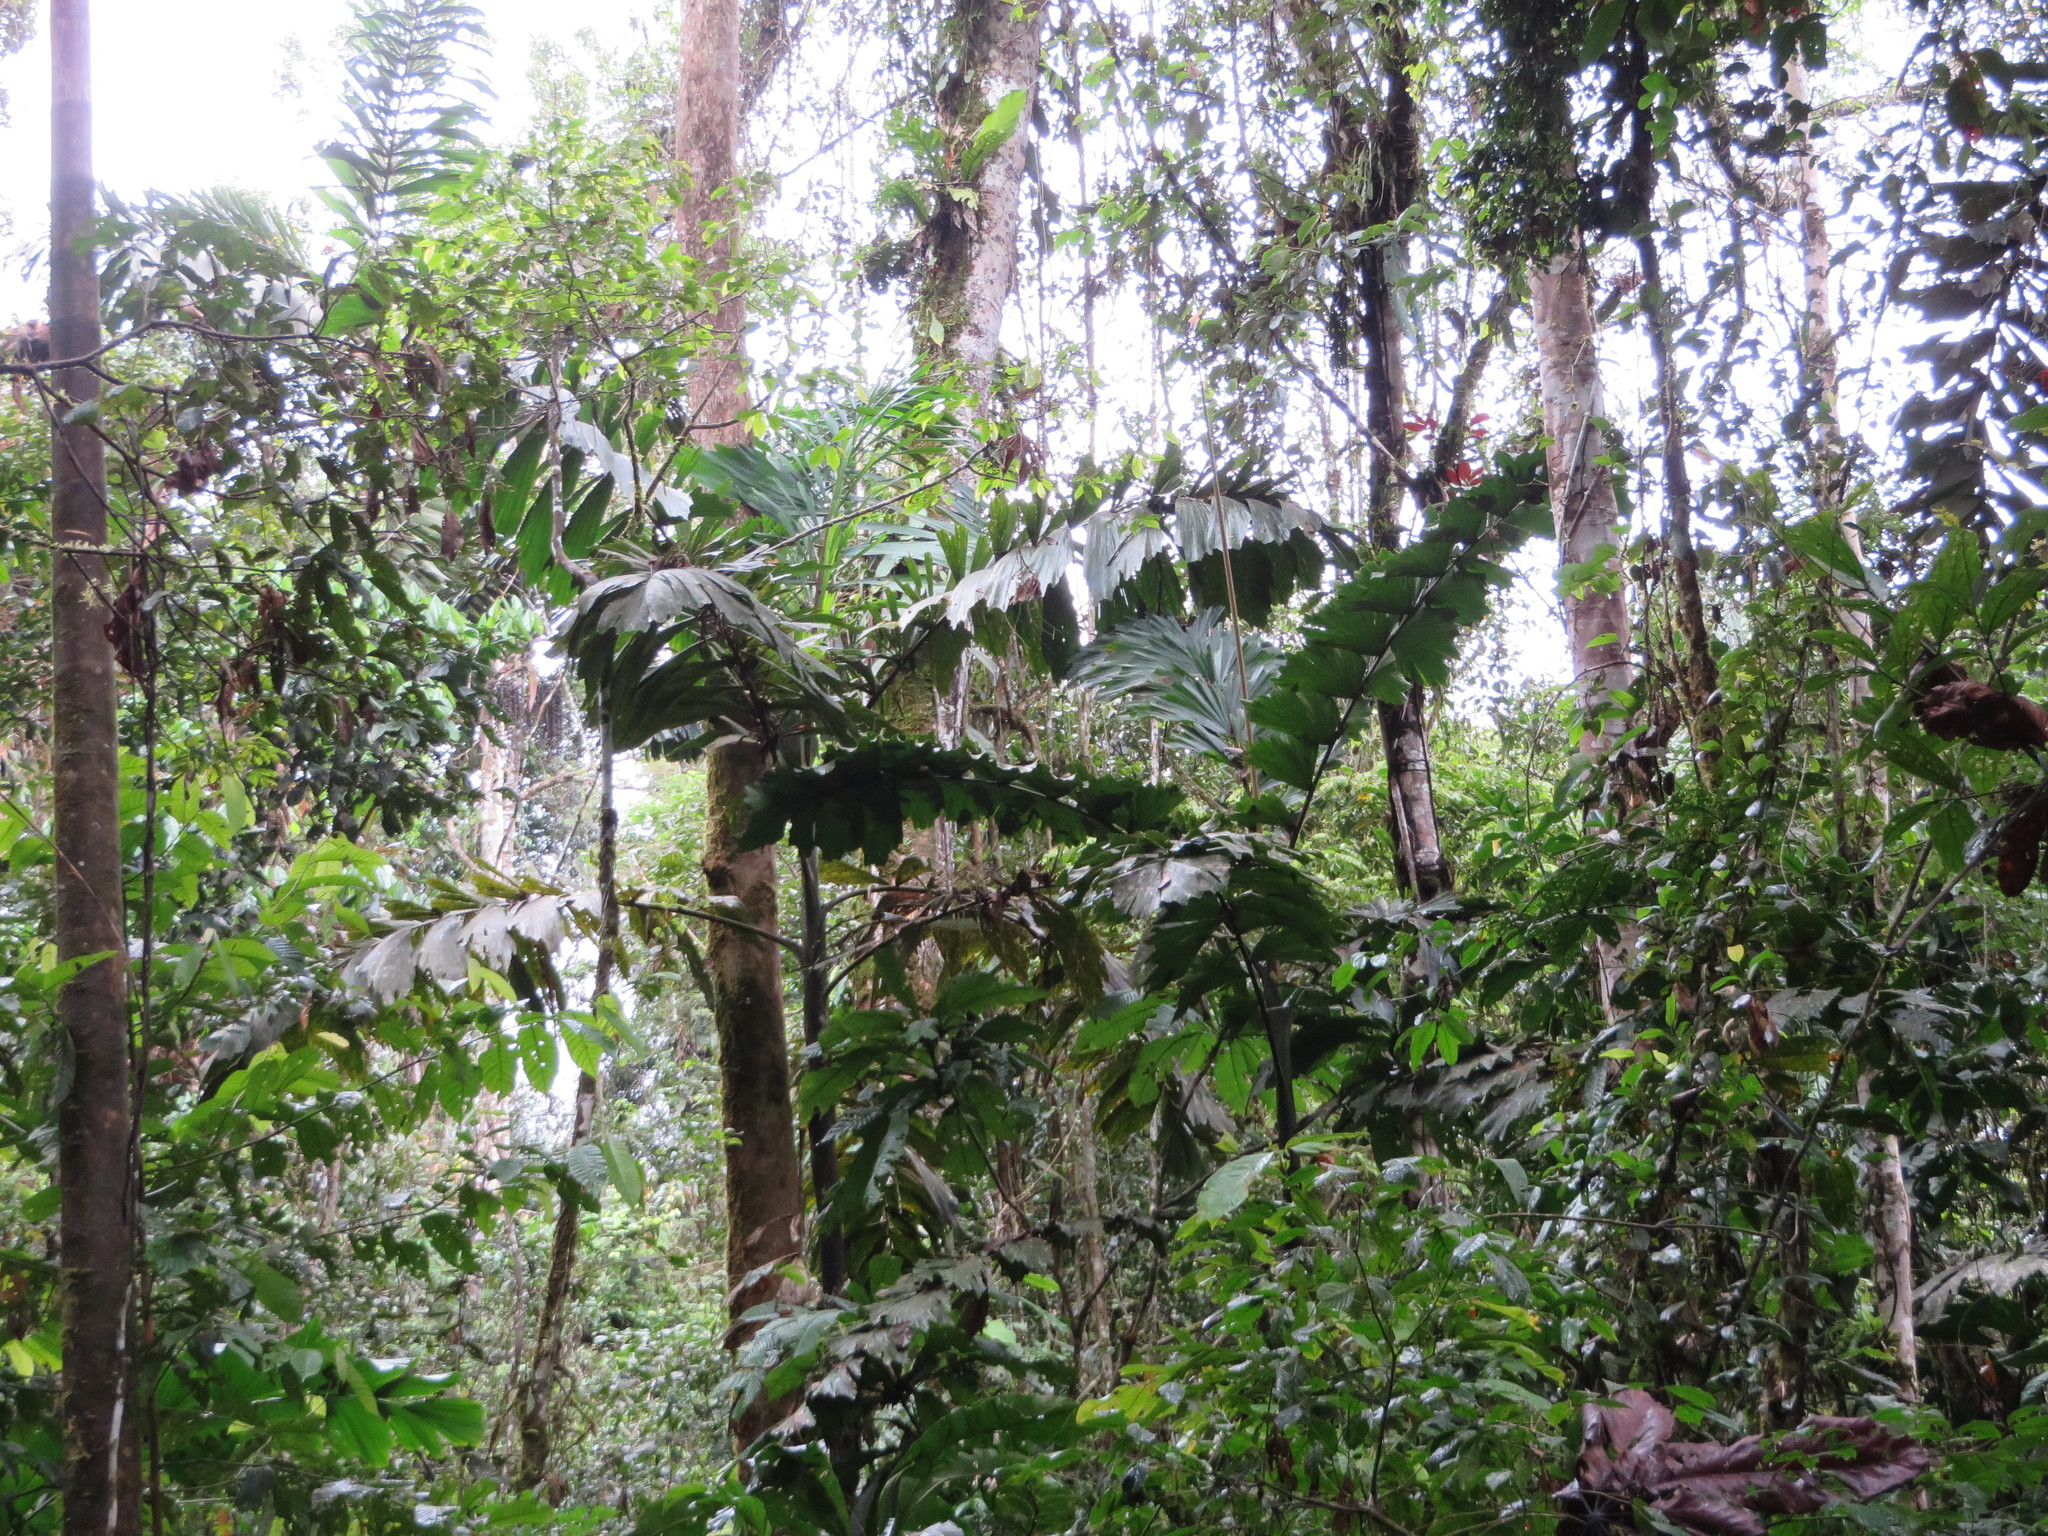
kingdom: Plantae
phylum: Tracheophyta
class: Liliopsida
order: Arecales
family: Arecaceae
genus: Iriartea
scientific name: Iriartea deltoidea
